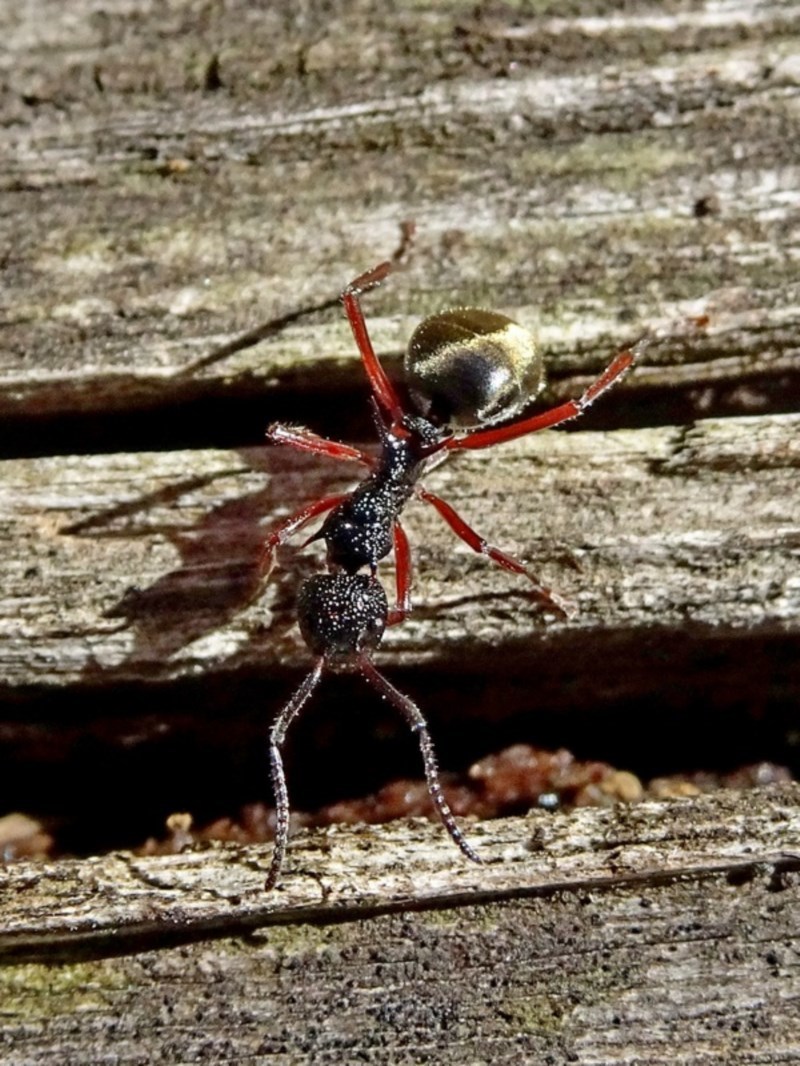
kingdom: Animalia
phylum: Arthropoda
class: Insecta
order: Hymenoptera
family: Formicidae
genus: Dolichoderus
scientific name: Dolichoderus doriae
